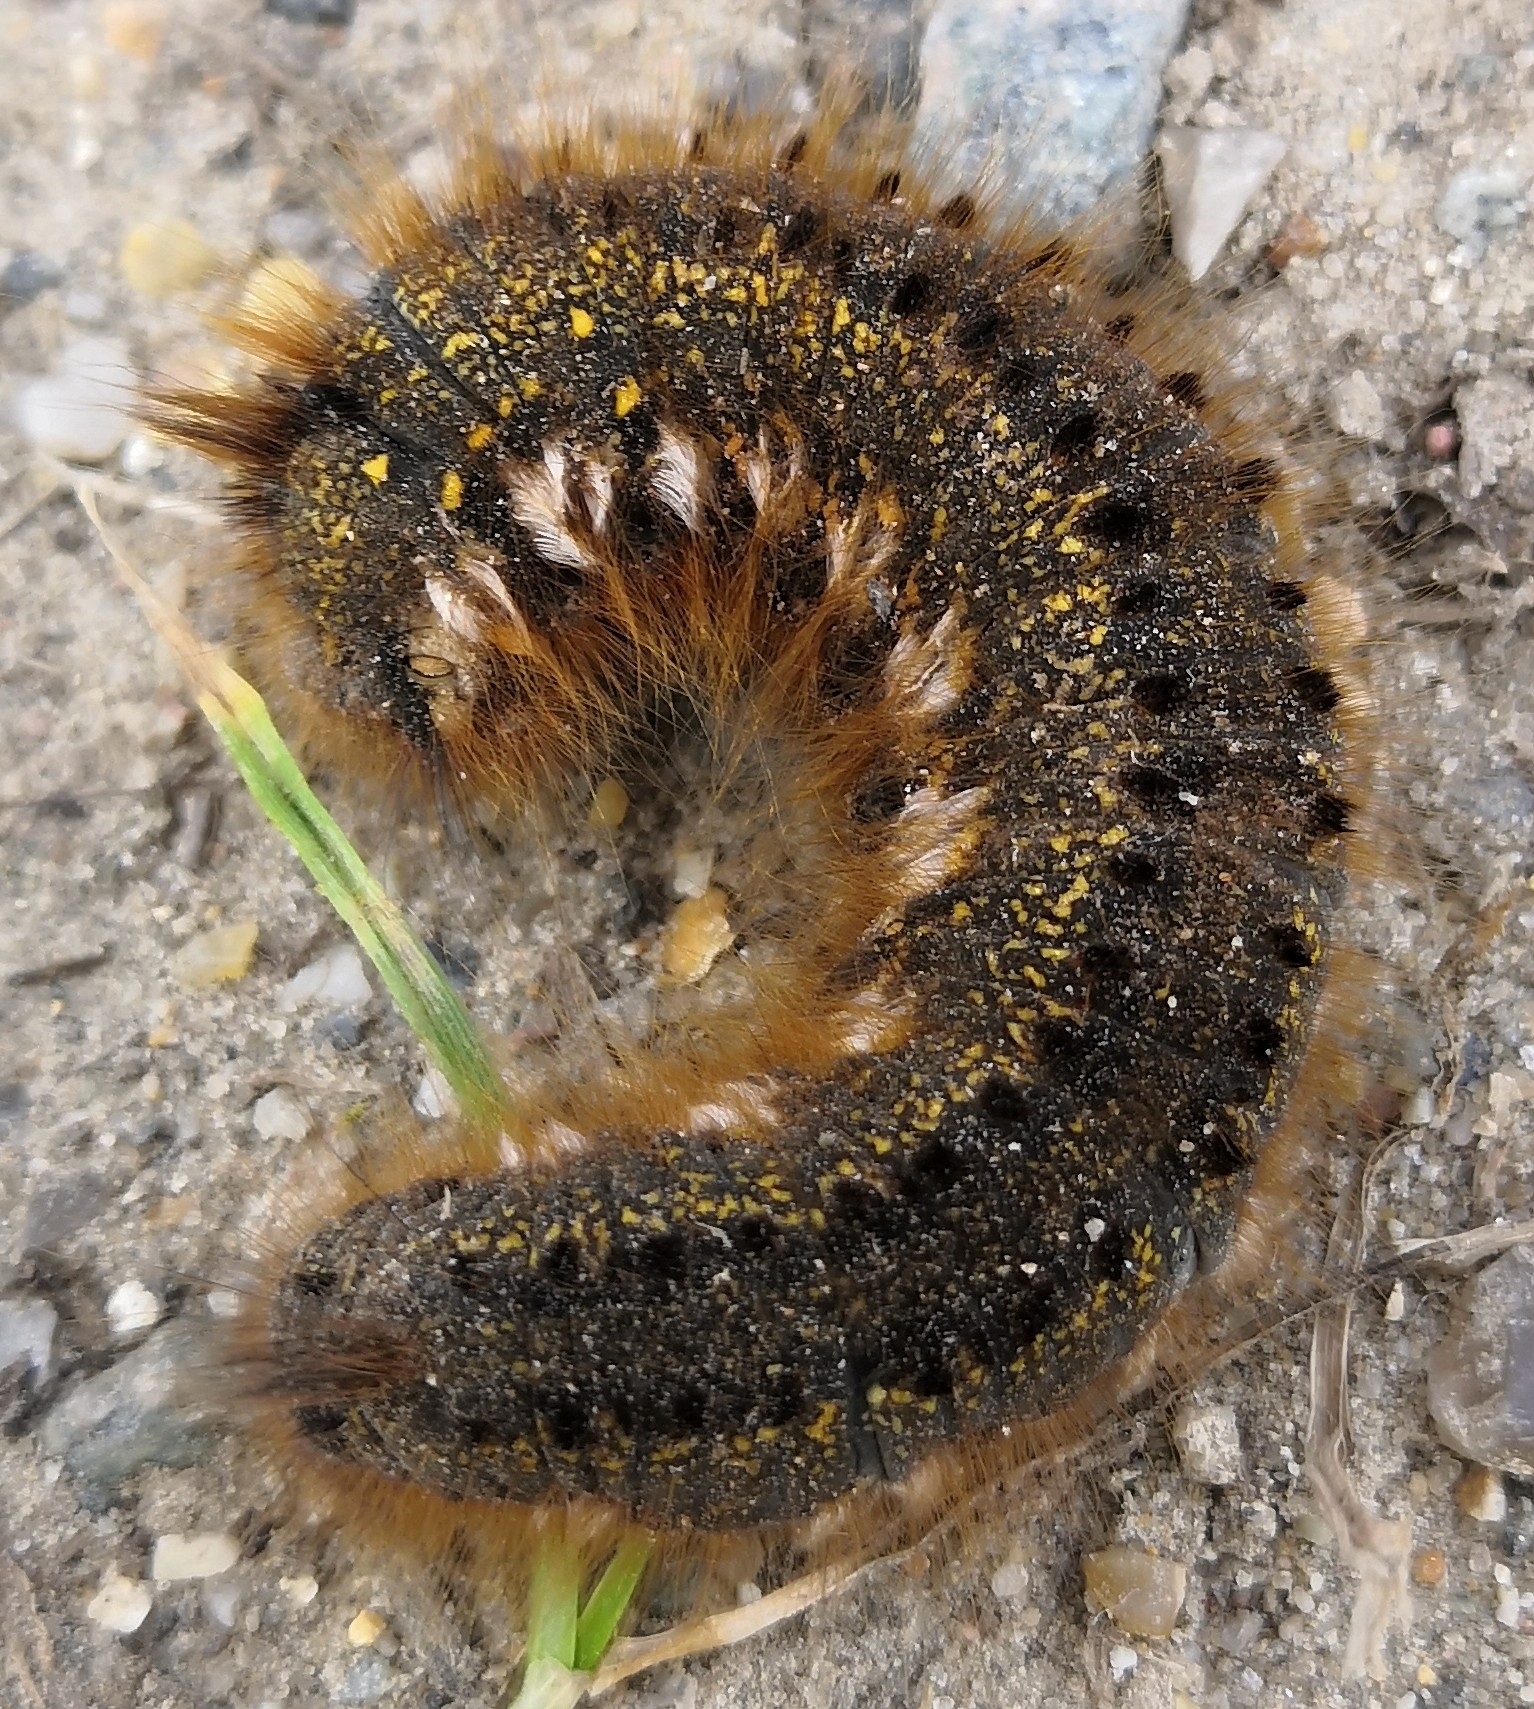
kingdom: Animalia
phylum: Arthropoda
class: Insecta
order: Lepidoptera
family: Lasiocampidae
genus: Euthrix
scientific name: Euthrix potatoria
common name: Drinker
